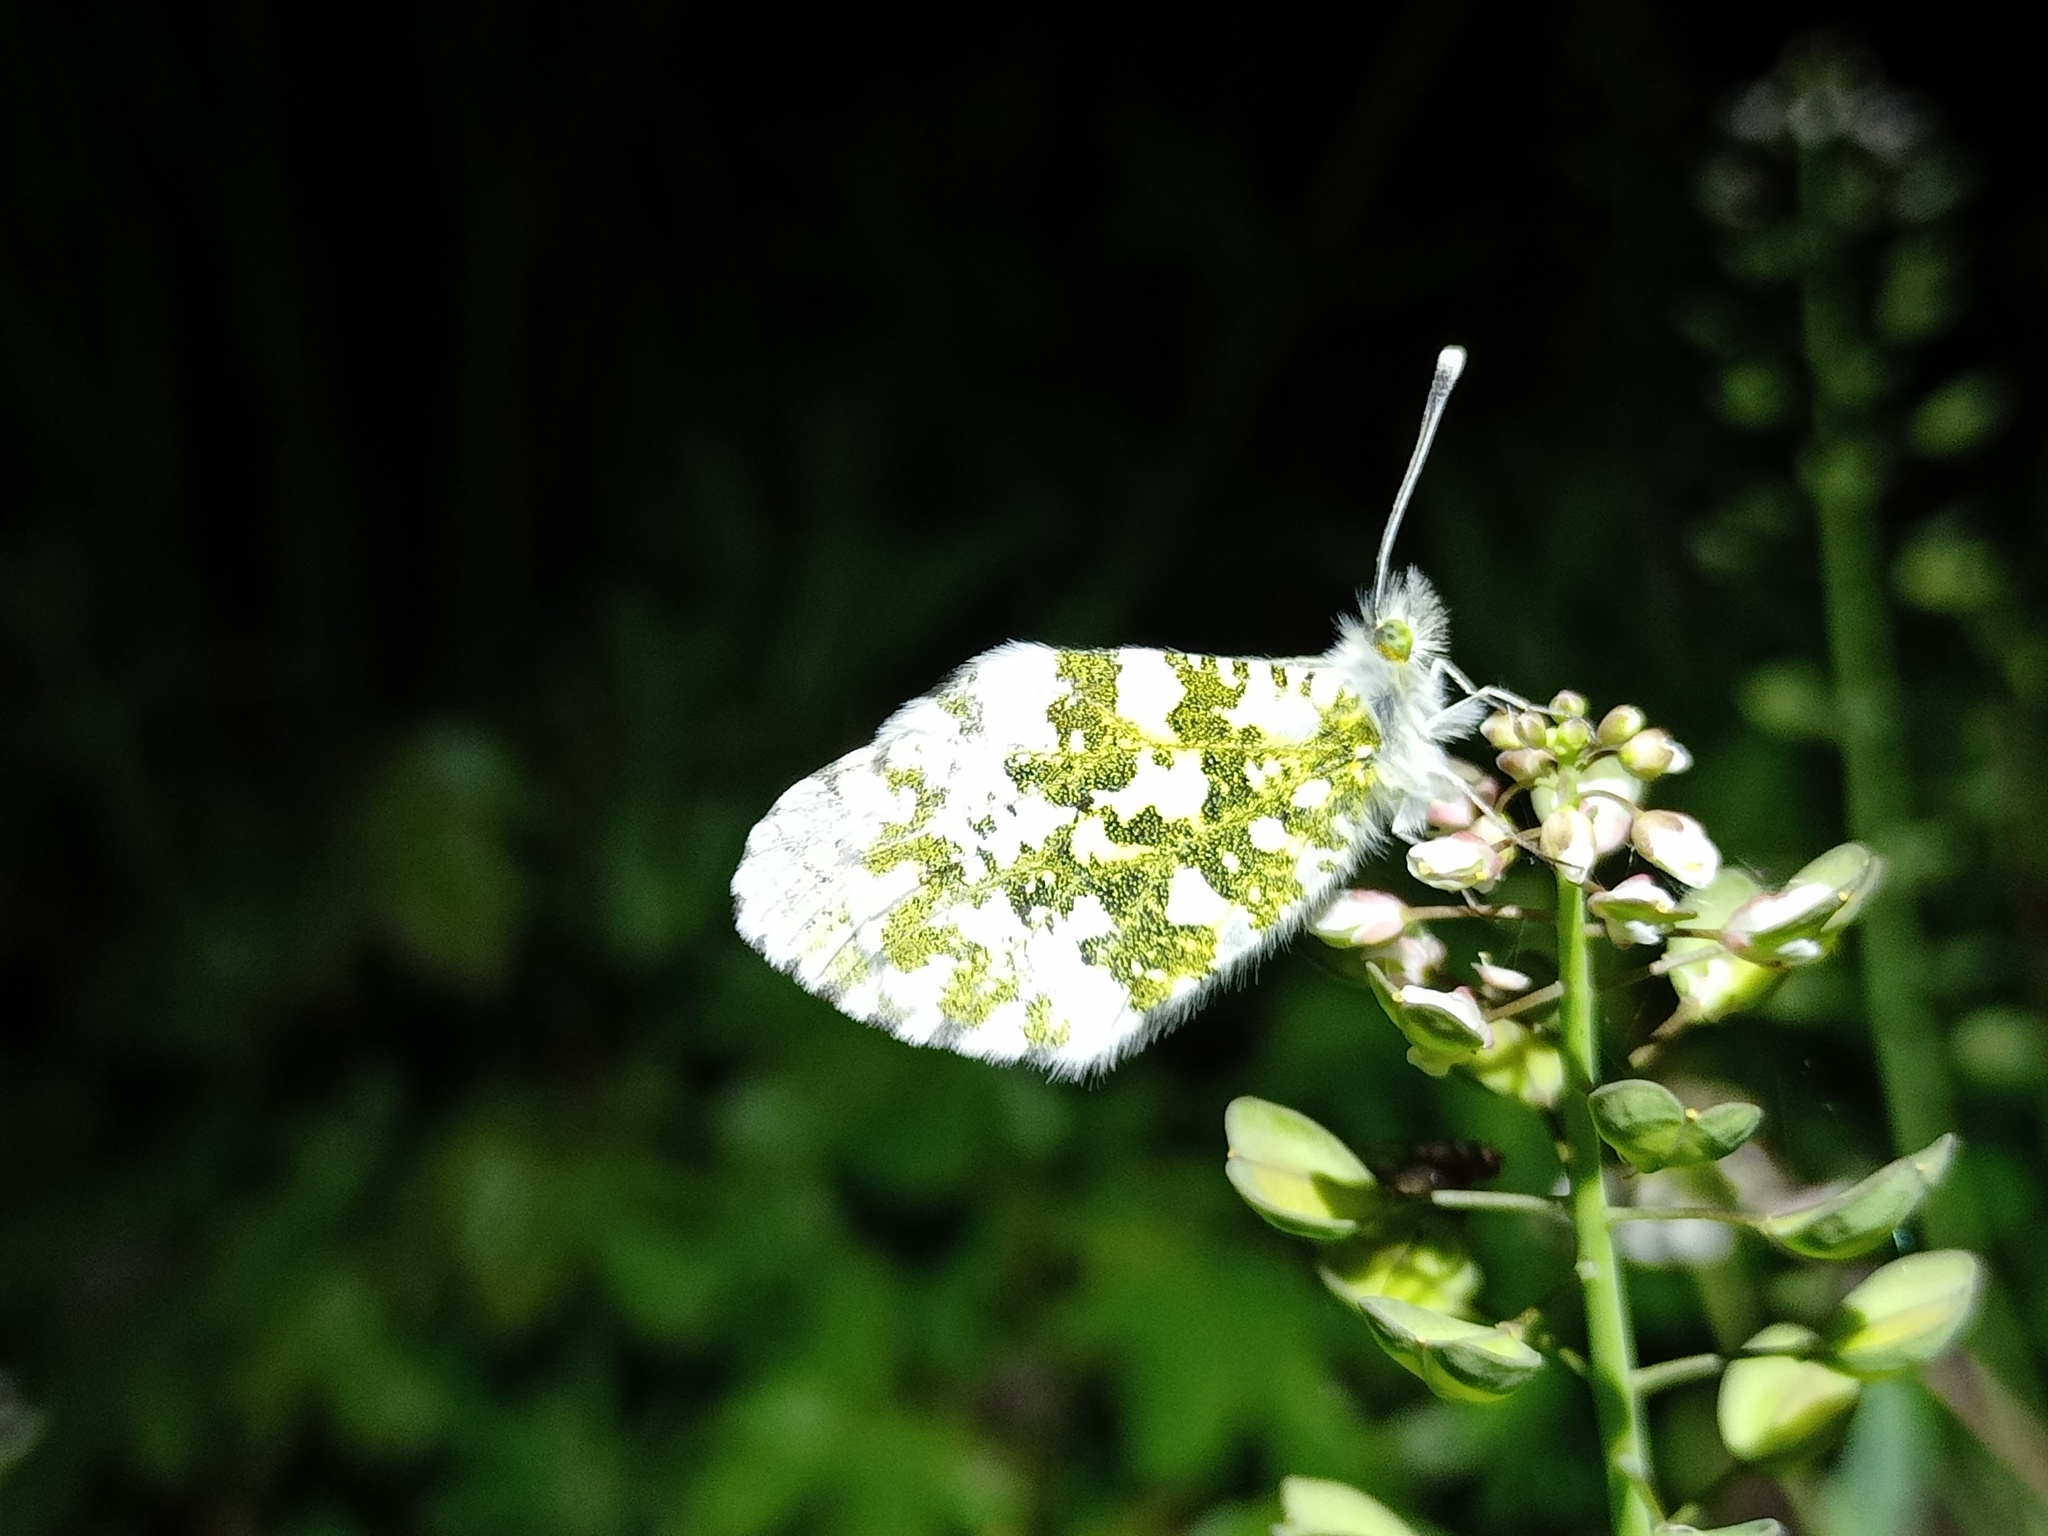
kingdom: Animalia
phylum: Arthropoda
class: Insecta
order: Lepidoptera
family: Pieridae
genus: Anthocharis
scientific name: Anthocharis cardamines
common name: Orange-tip
